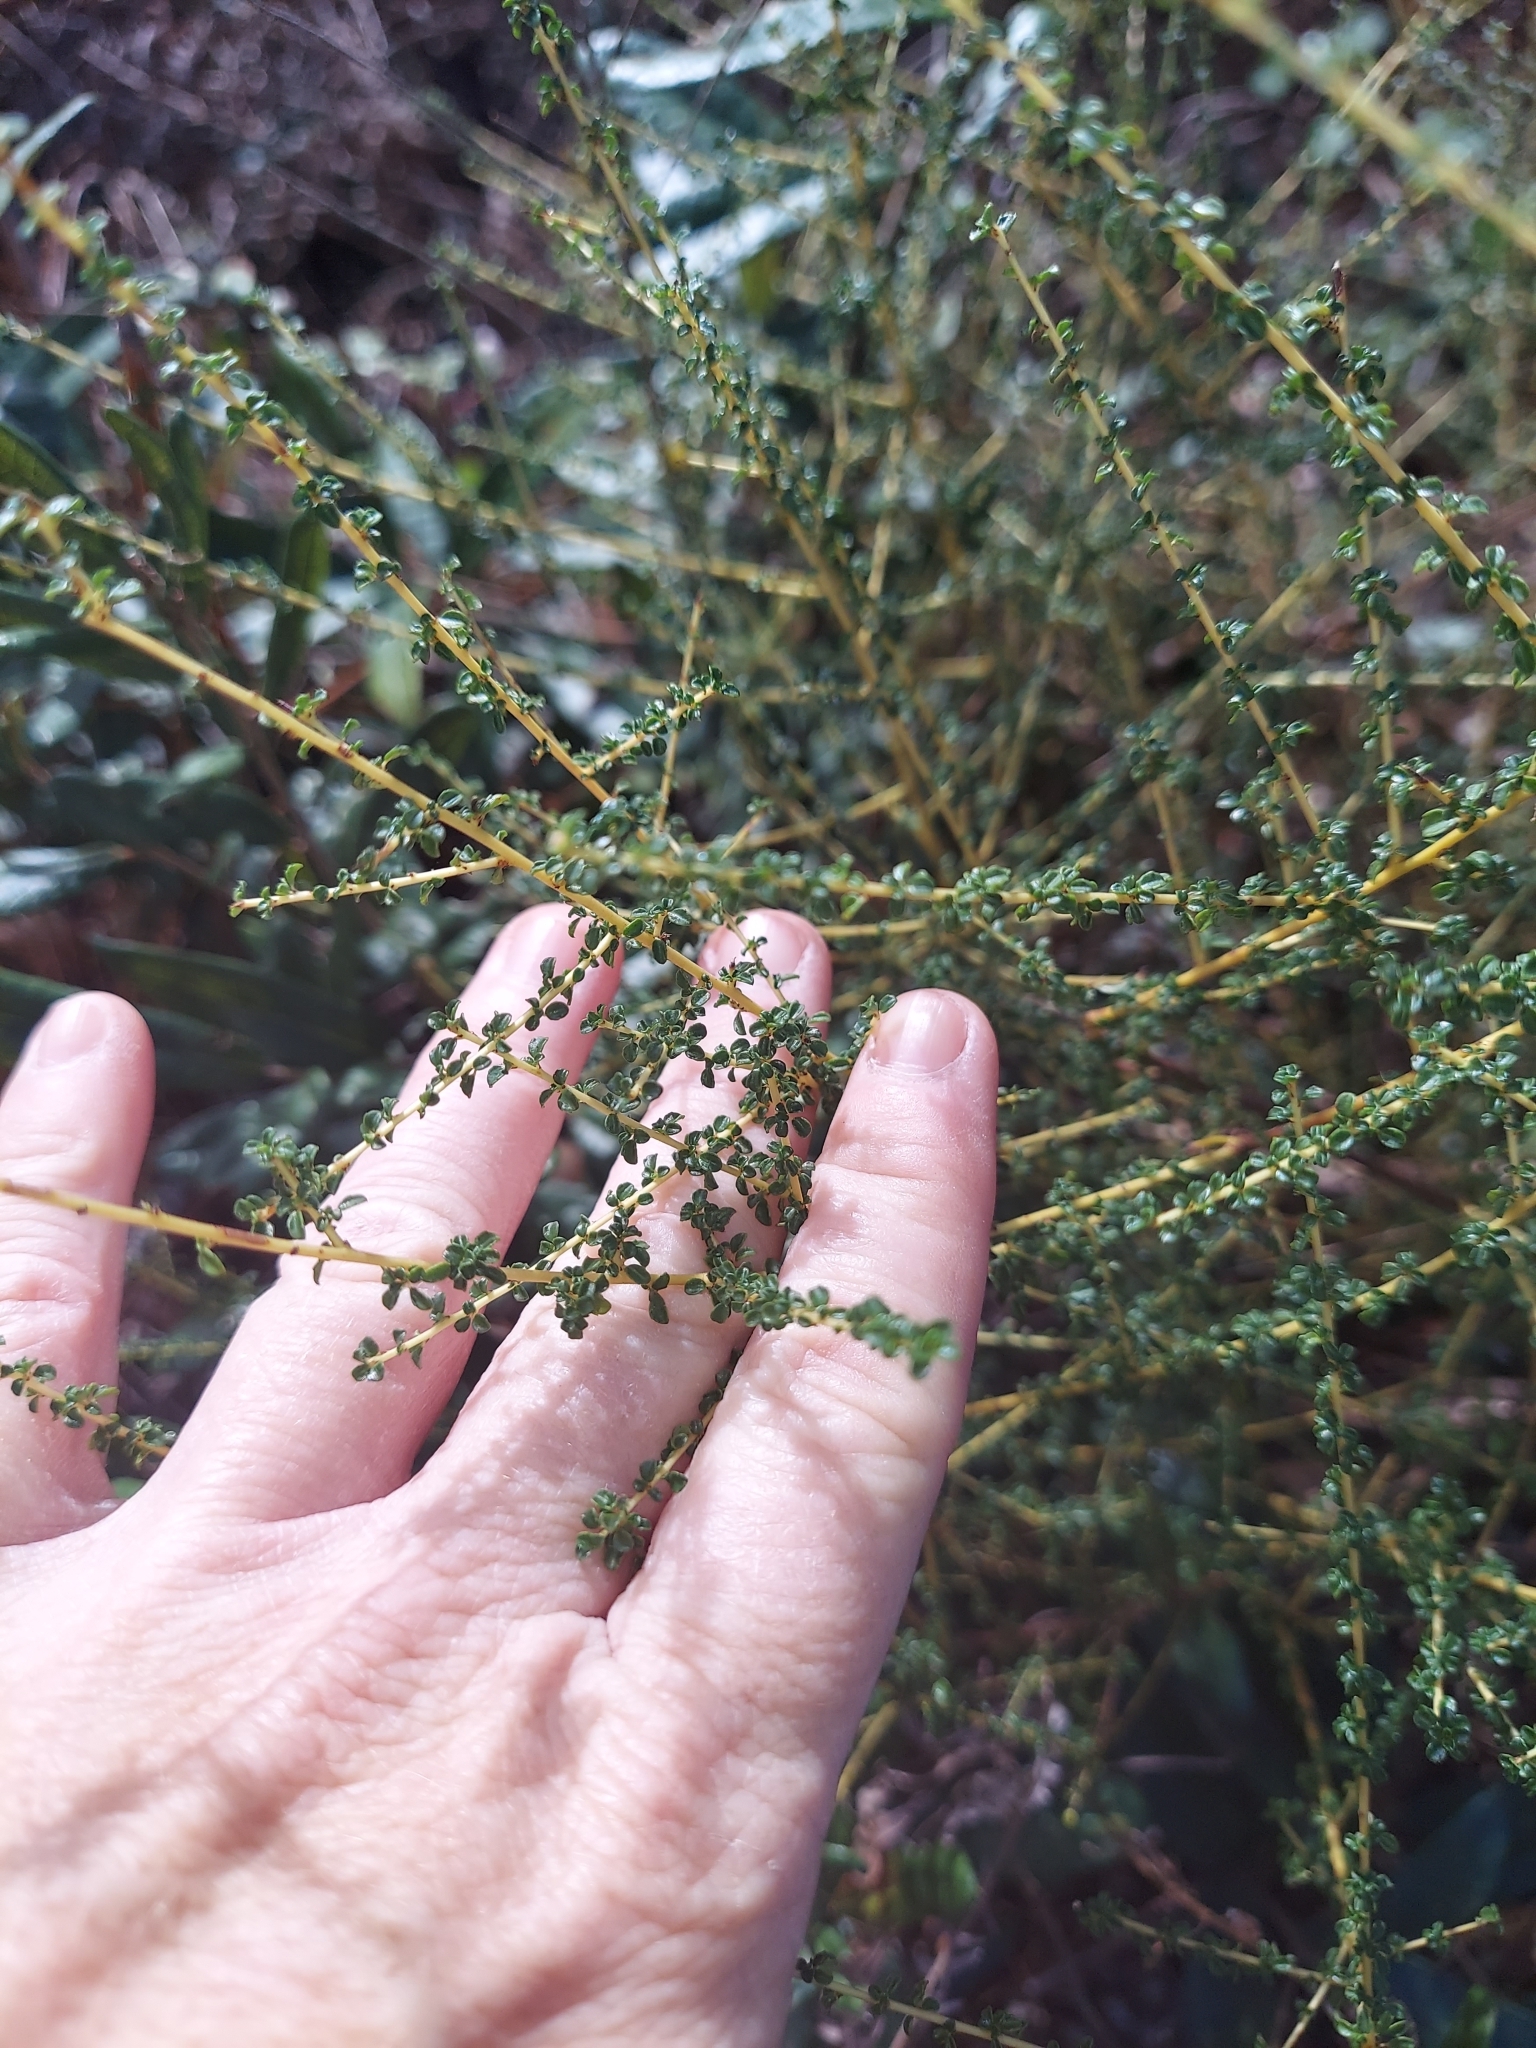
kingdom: Plantae
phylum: Tracheophyta
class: Magnoliopsida
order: Rosales
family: Rhamnaceae
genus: Ceanothus
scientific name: Ceanothus microphyllus
